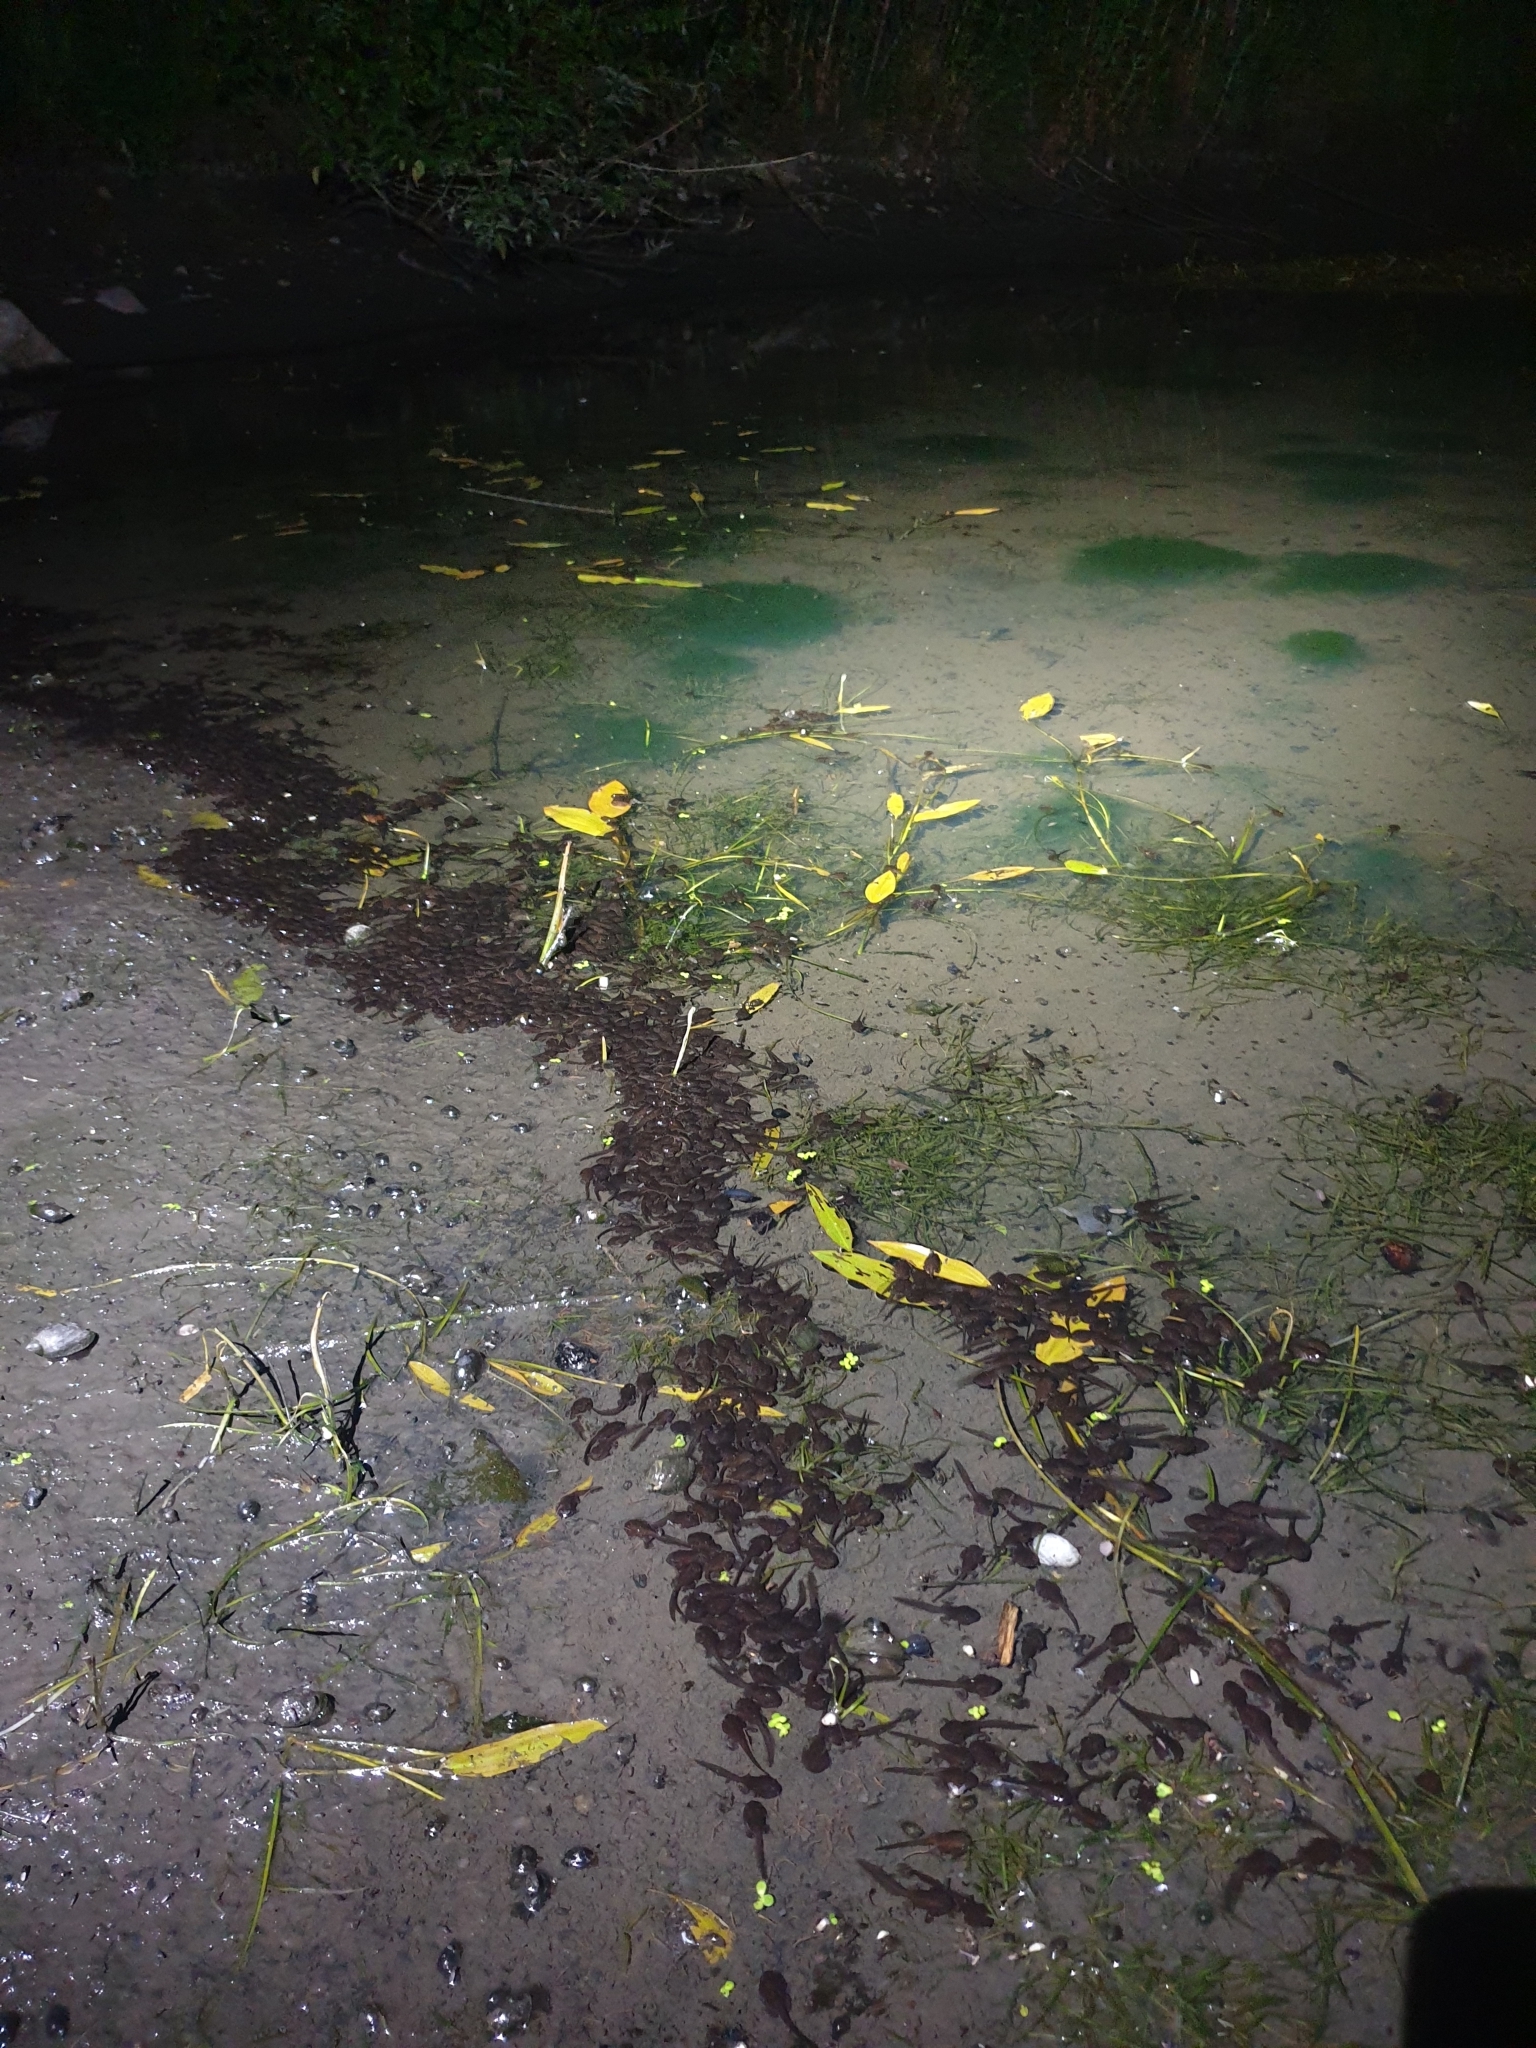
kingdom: Animalia
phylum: Chordata
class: Amphibia
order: Anura
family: Bufonidae
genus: Bufo
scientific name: Bufo bufo
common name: Common toad
